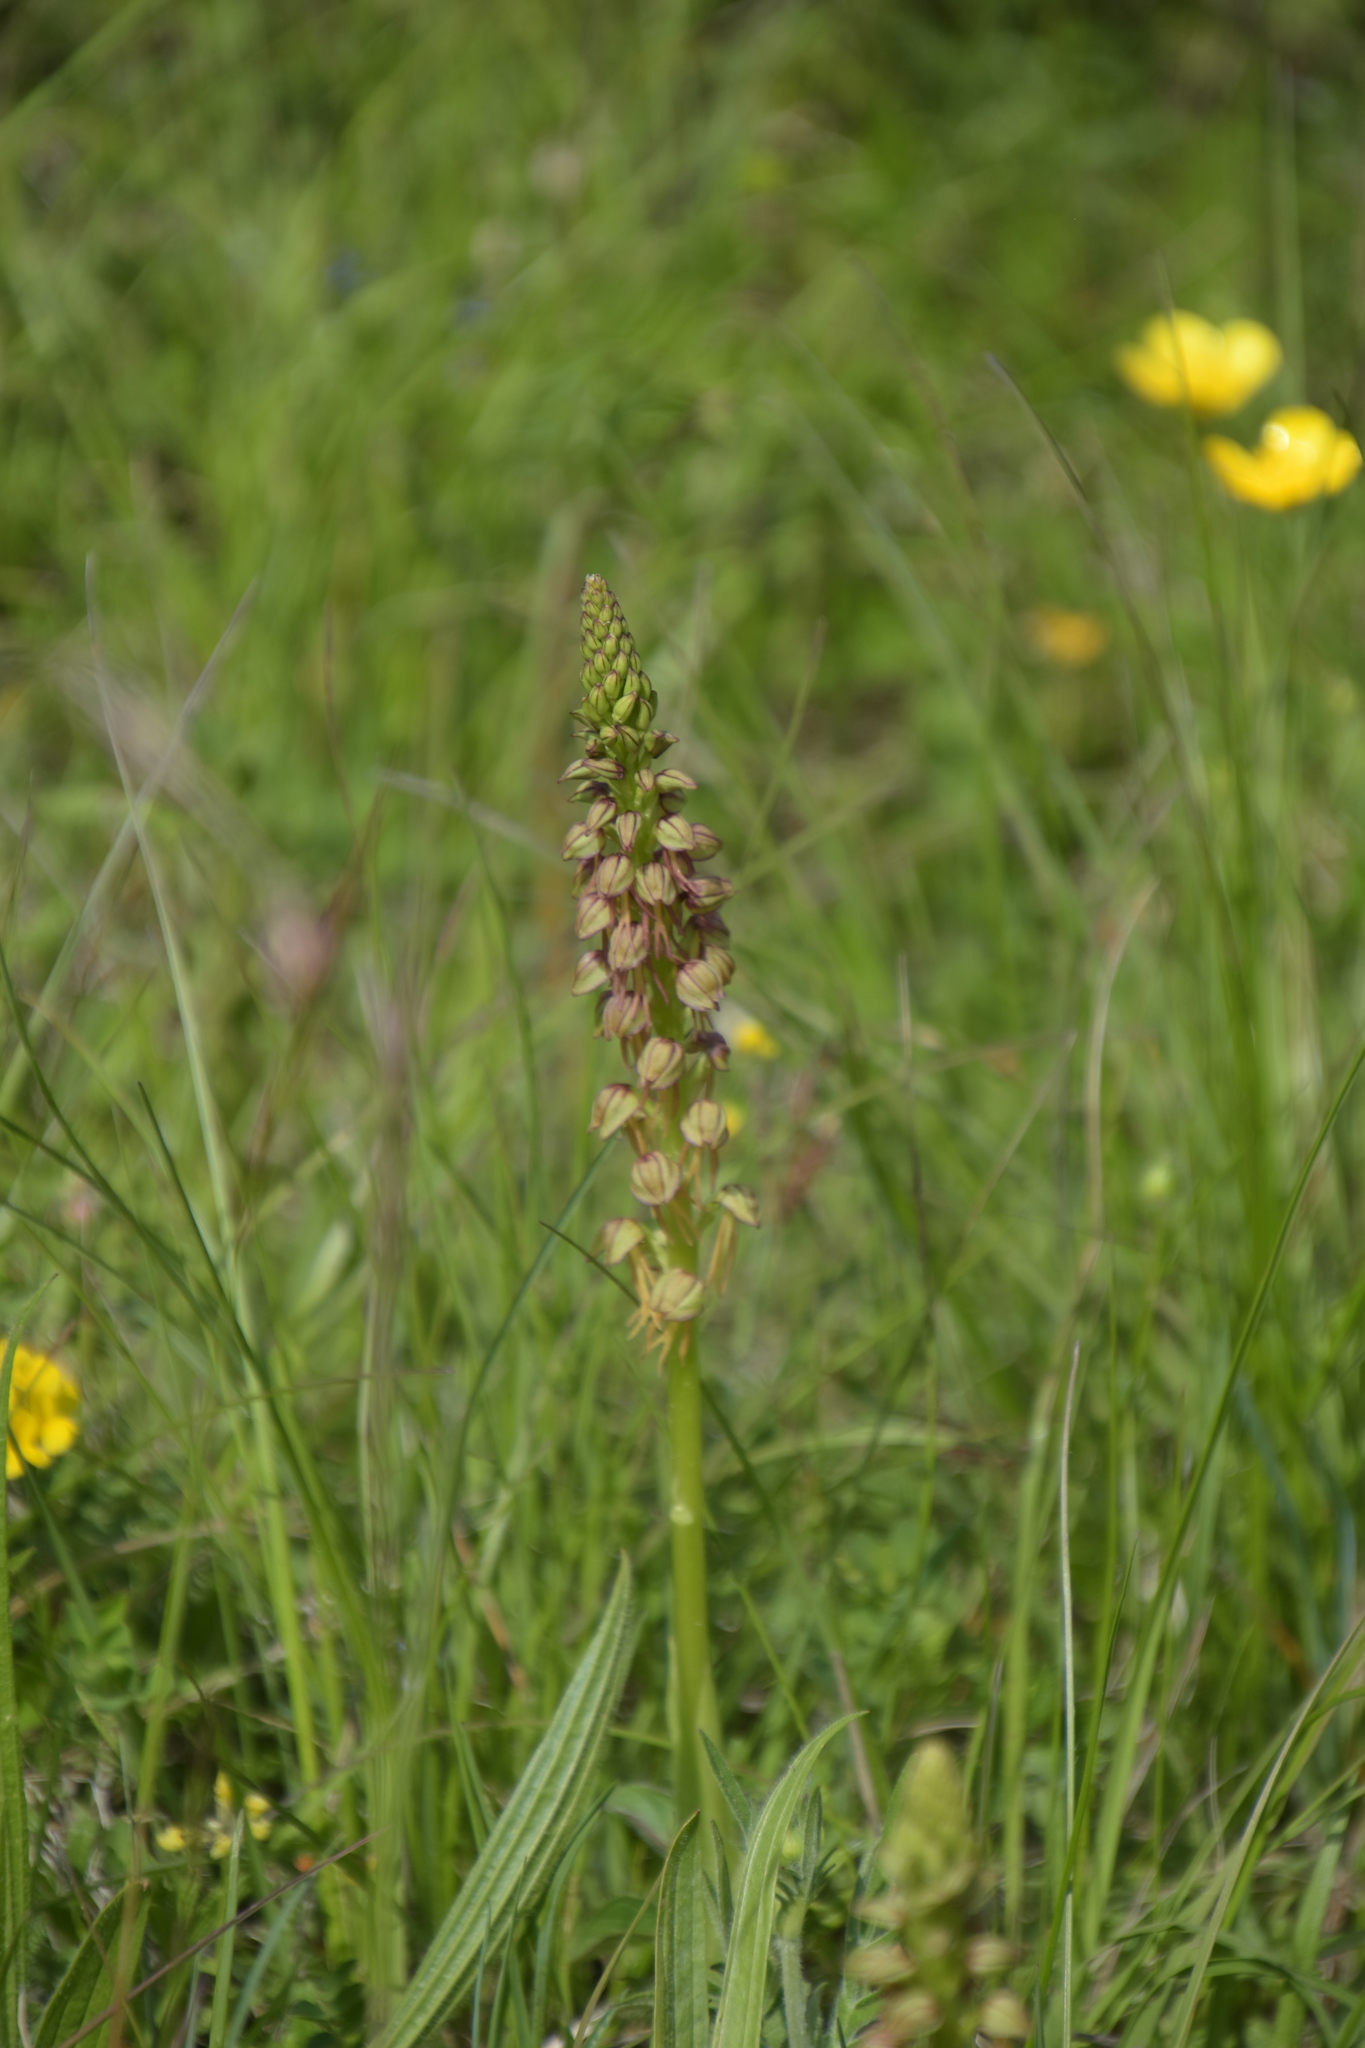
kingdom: Plantae
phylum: Tracheophyta
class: Liliopsida
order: Asparagales
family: Orchidaceae
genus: Orchis
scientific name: Orchis anthropophora
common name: Man orchid
